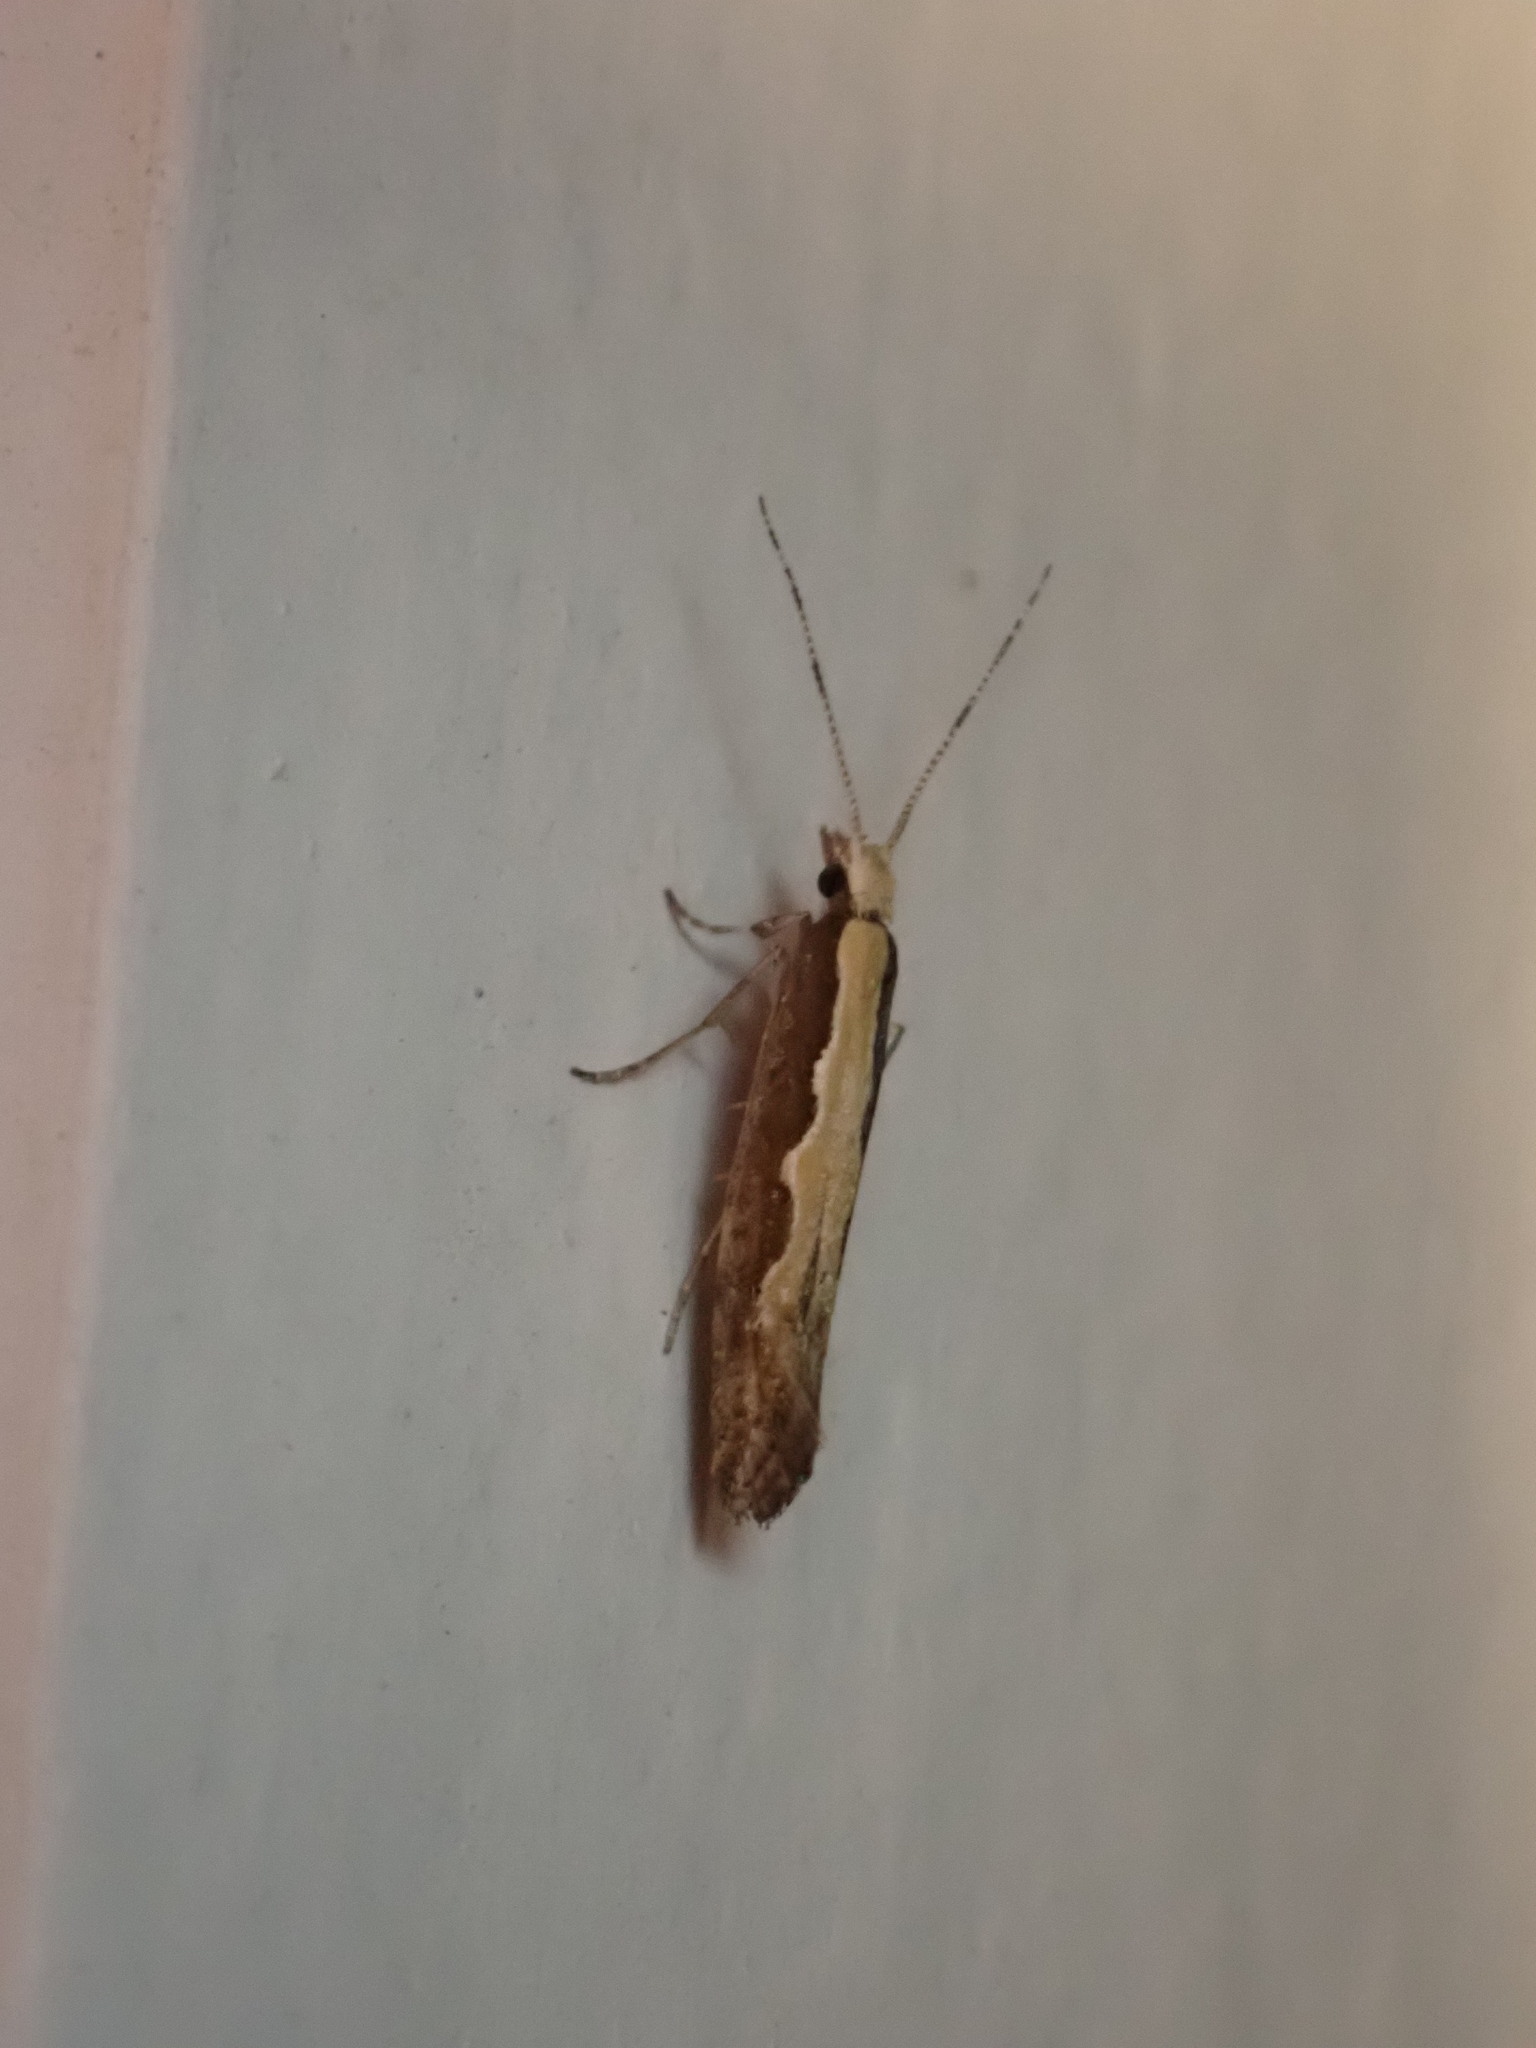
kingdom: Animalia
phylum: Arthropoda
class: Insecta
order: Lepidoptera
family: Plutellidae
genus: Plutella
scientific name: Plutella xylostella
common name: Diamond-back moth
